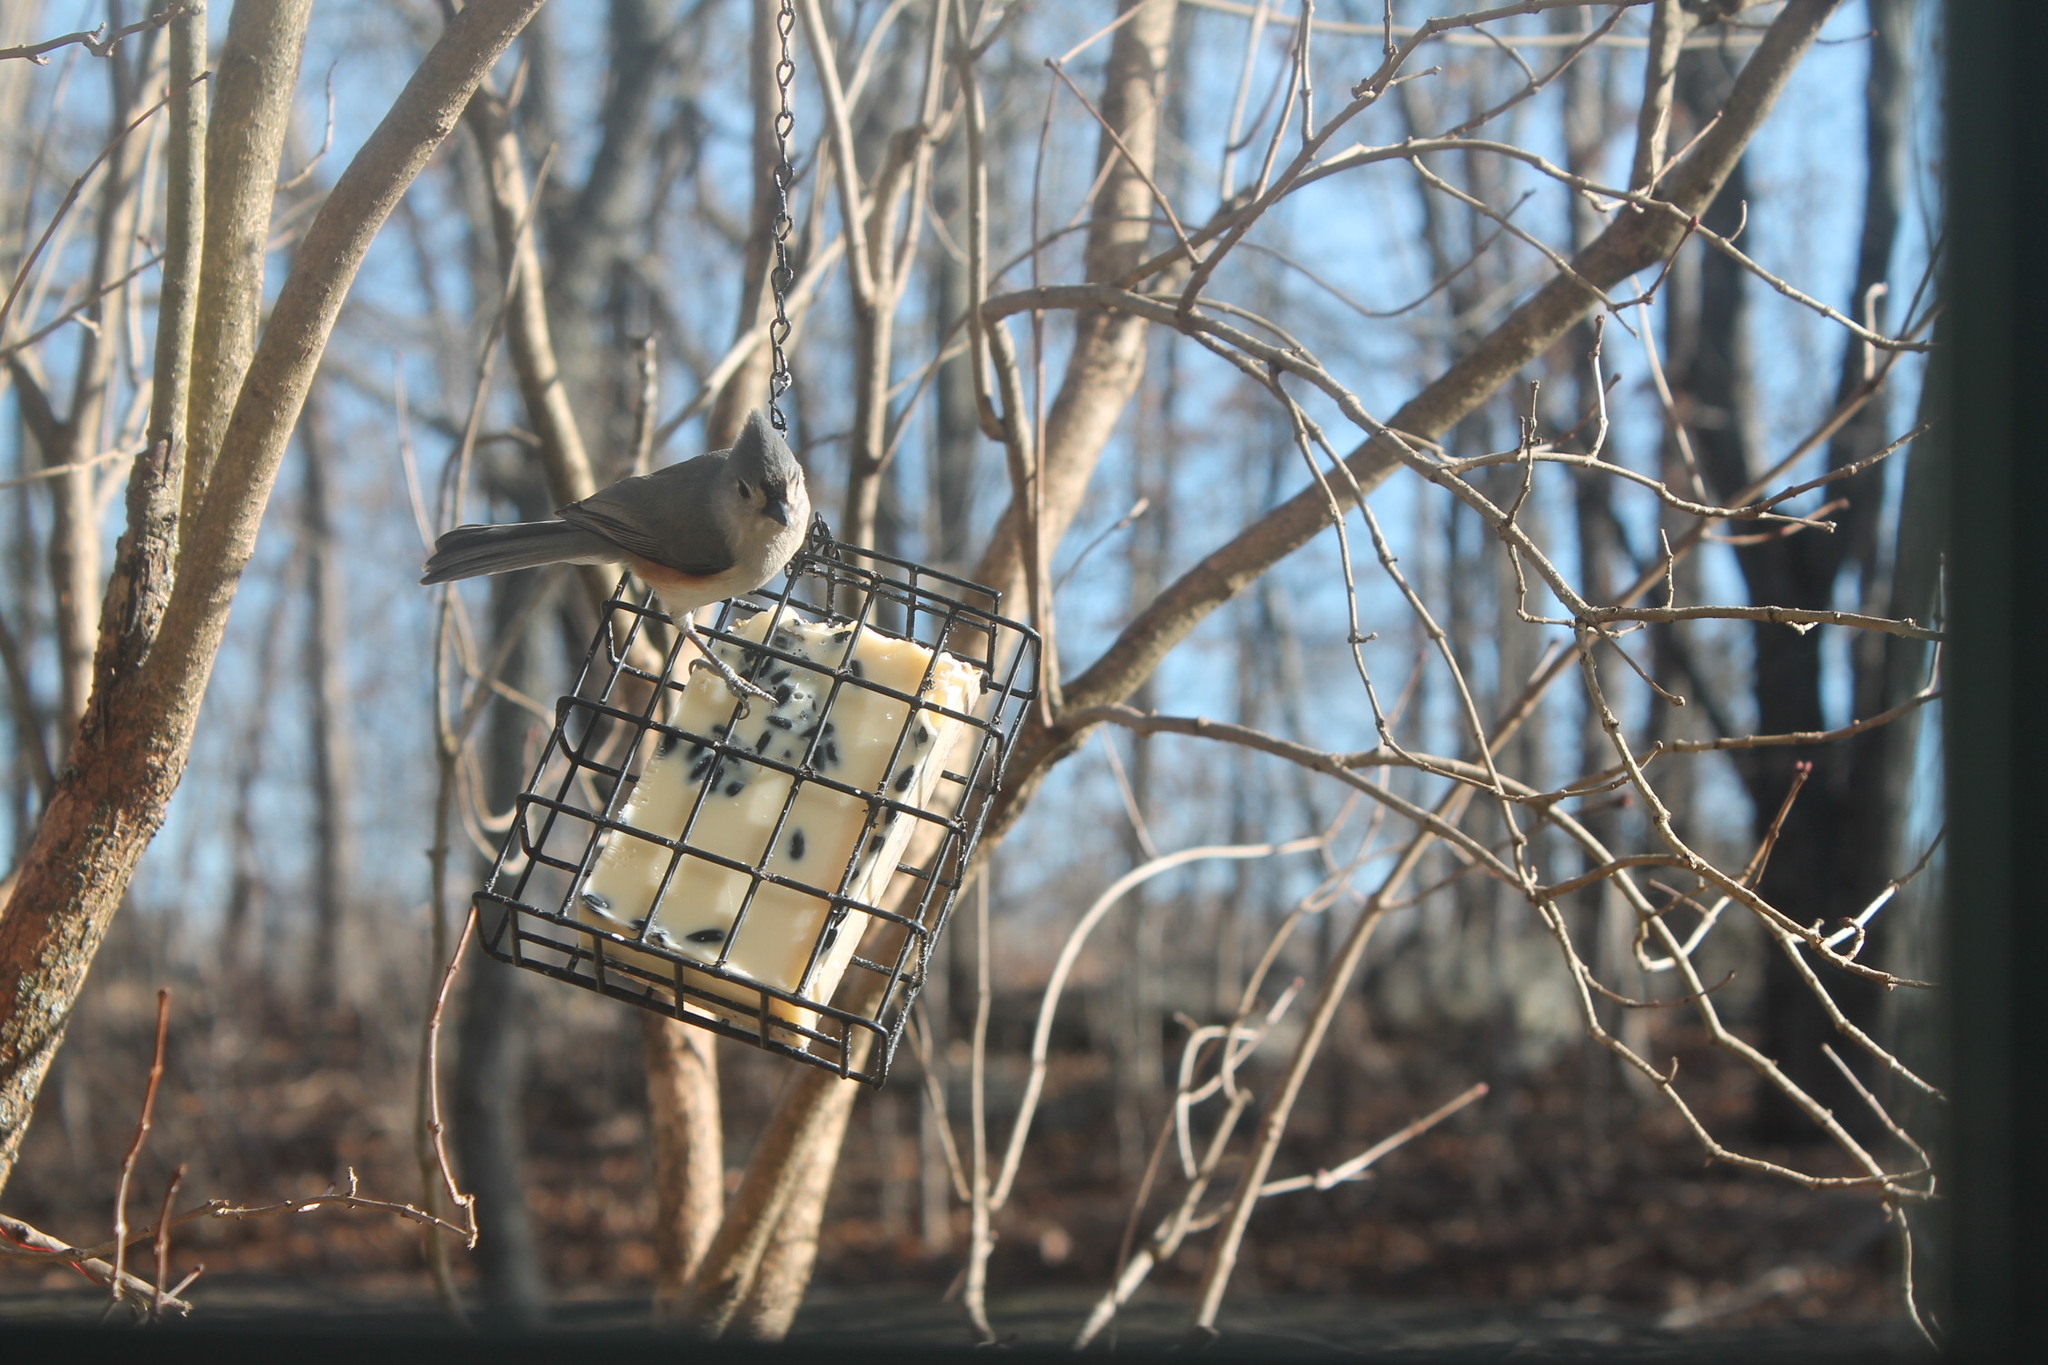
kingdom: Animalia
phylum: Chordata
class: Aves
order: Passeriformes
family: Paridae
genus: Baeolophus
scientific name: Baeolophus bicolor
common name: Tufted titmouse
